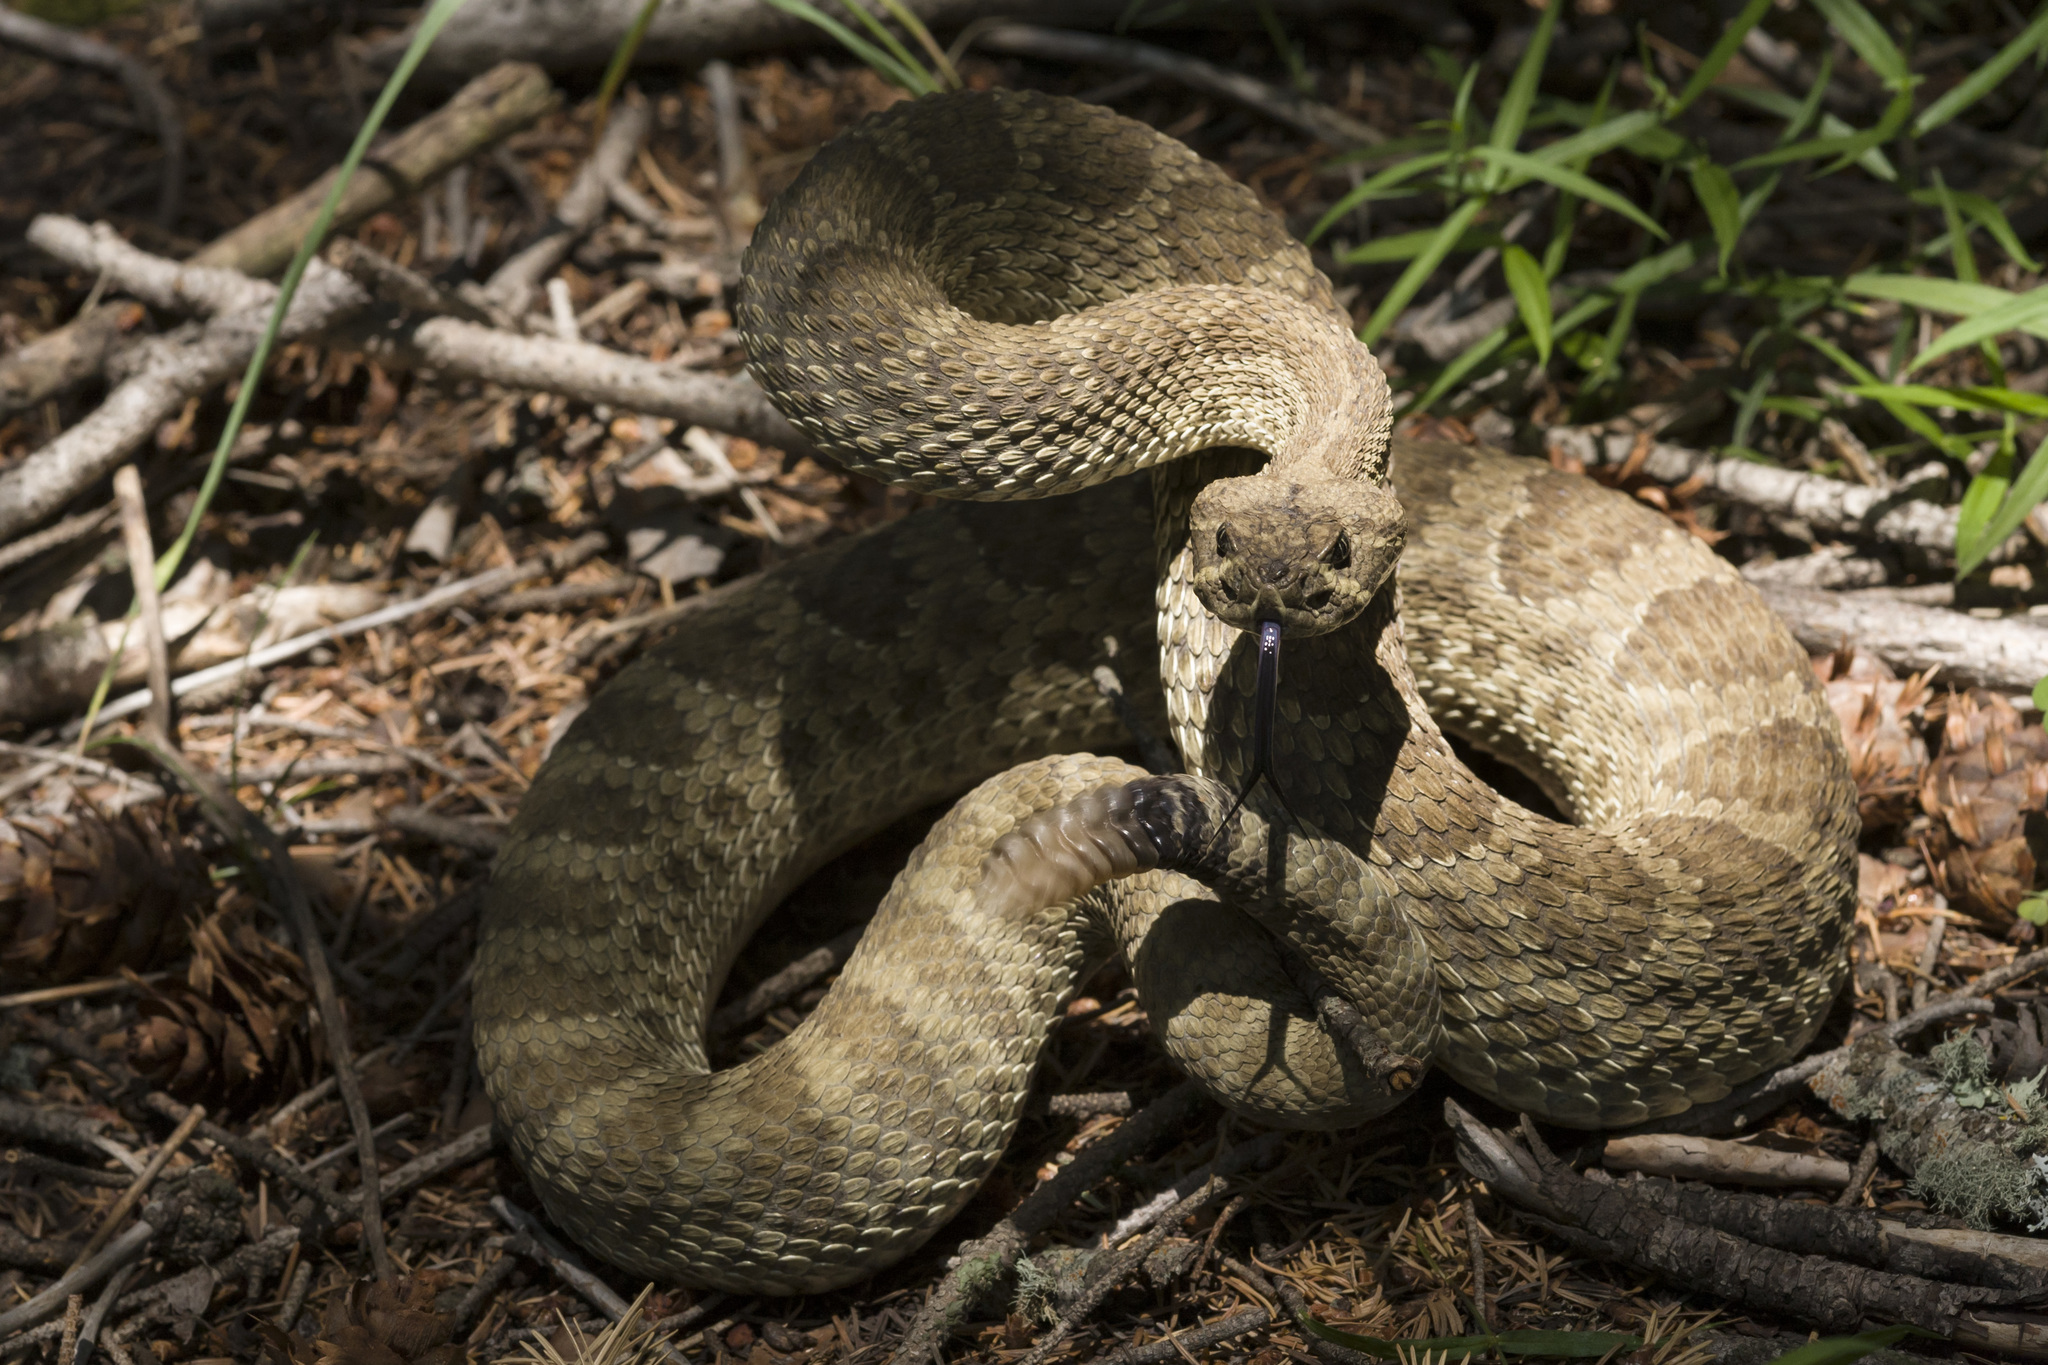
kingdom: Animalia
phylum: Chordata
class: Squamata
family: Viperidae
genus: Crotalus
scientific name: Crotalus viridis
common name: Prairie rattlesnake
